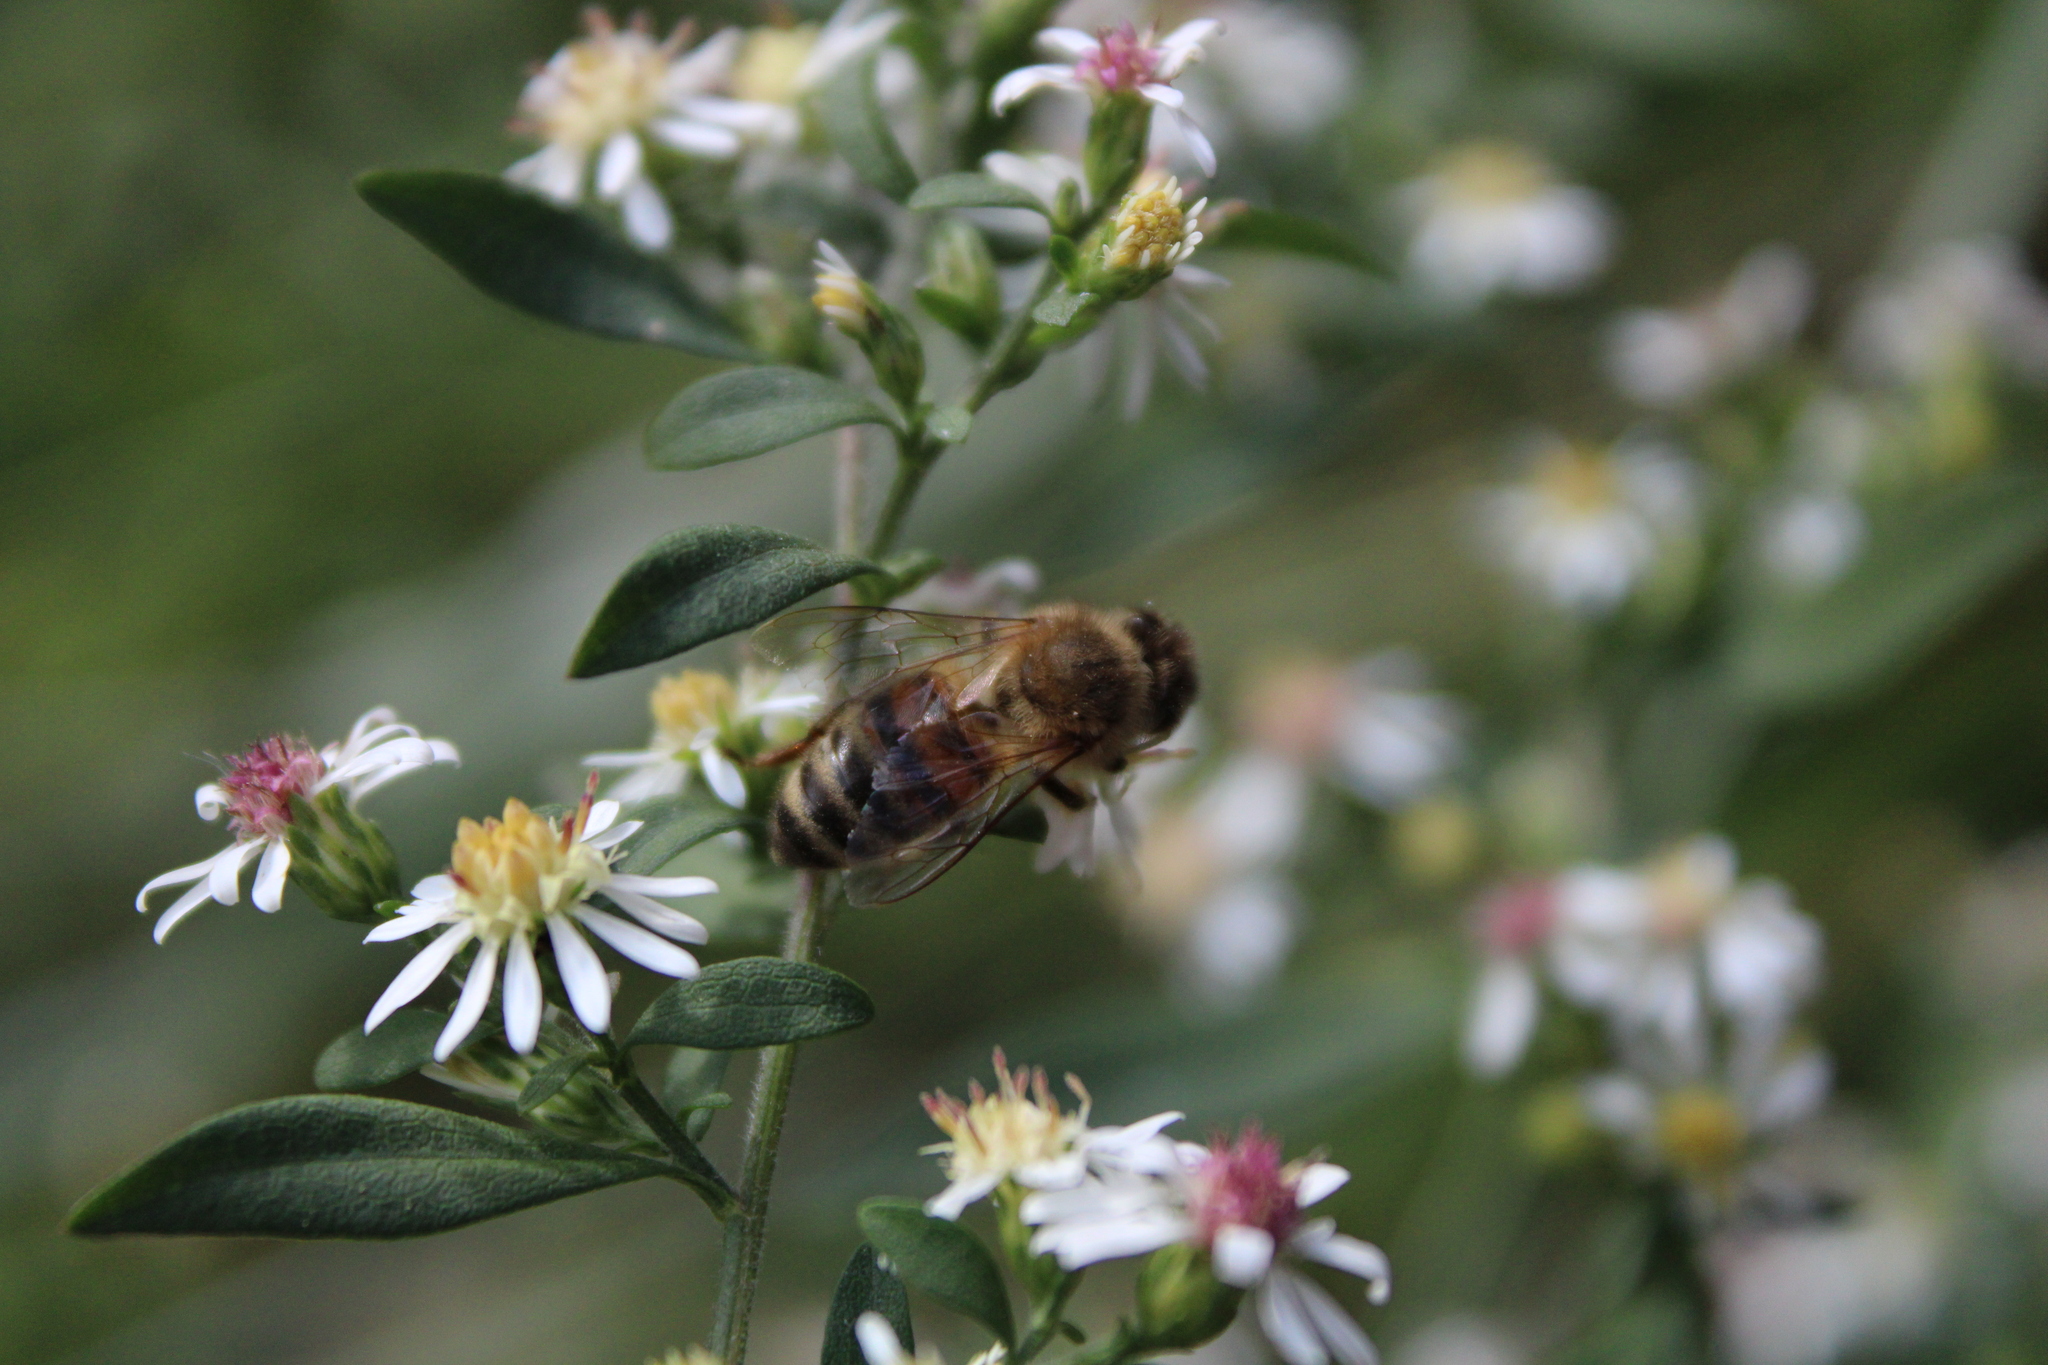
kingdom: Animalia
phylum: Arthropoda
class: Insecta
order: Hymenoptera
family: Apidae
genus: Apis
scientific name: Apis mellifera
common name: Honey bee
